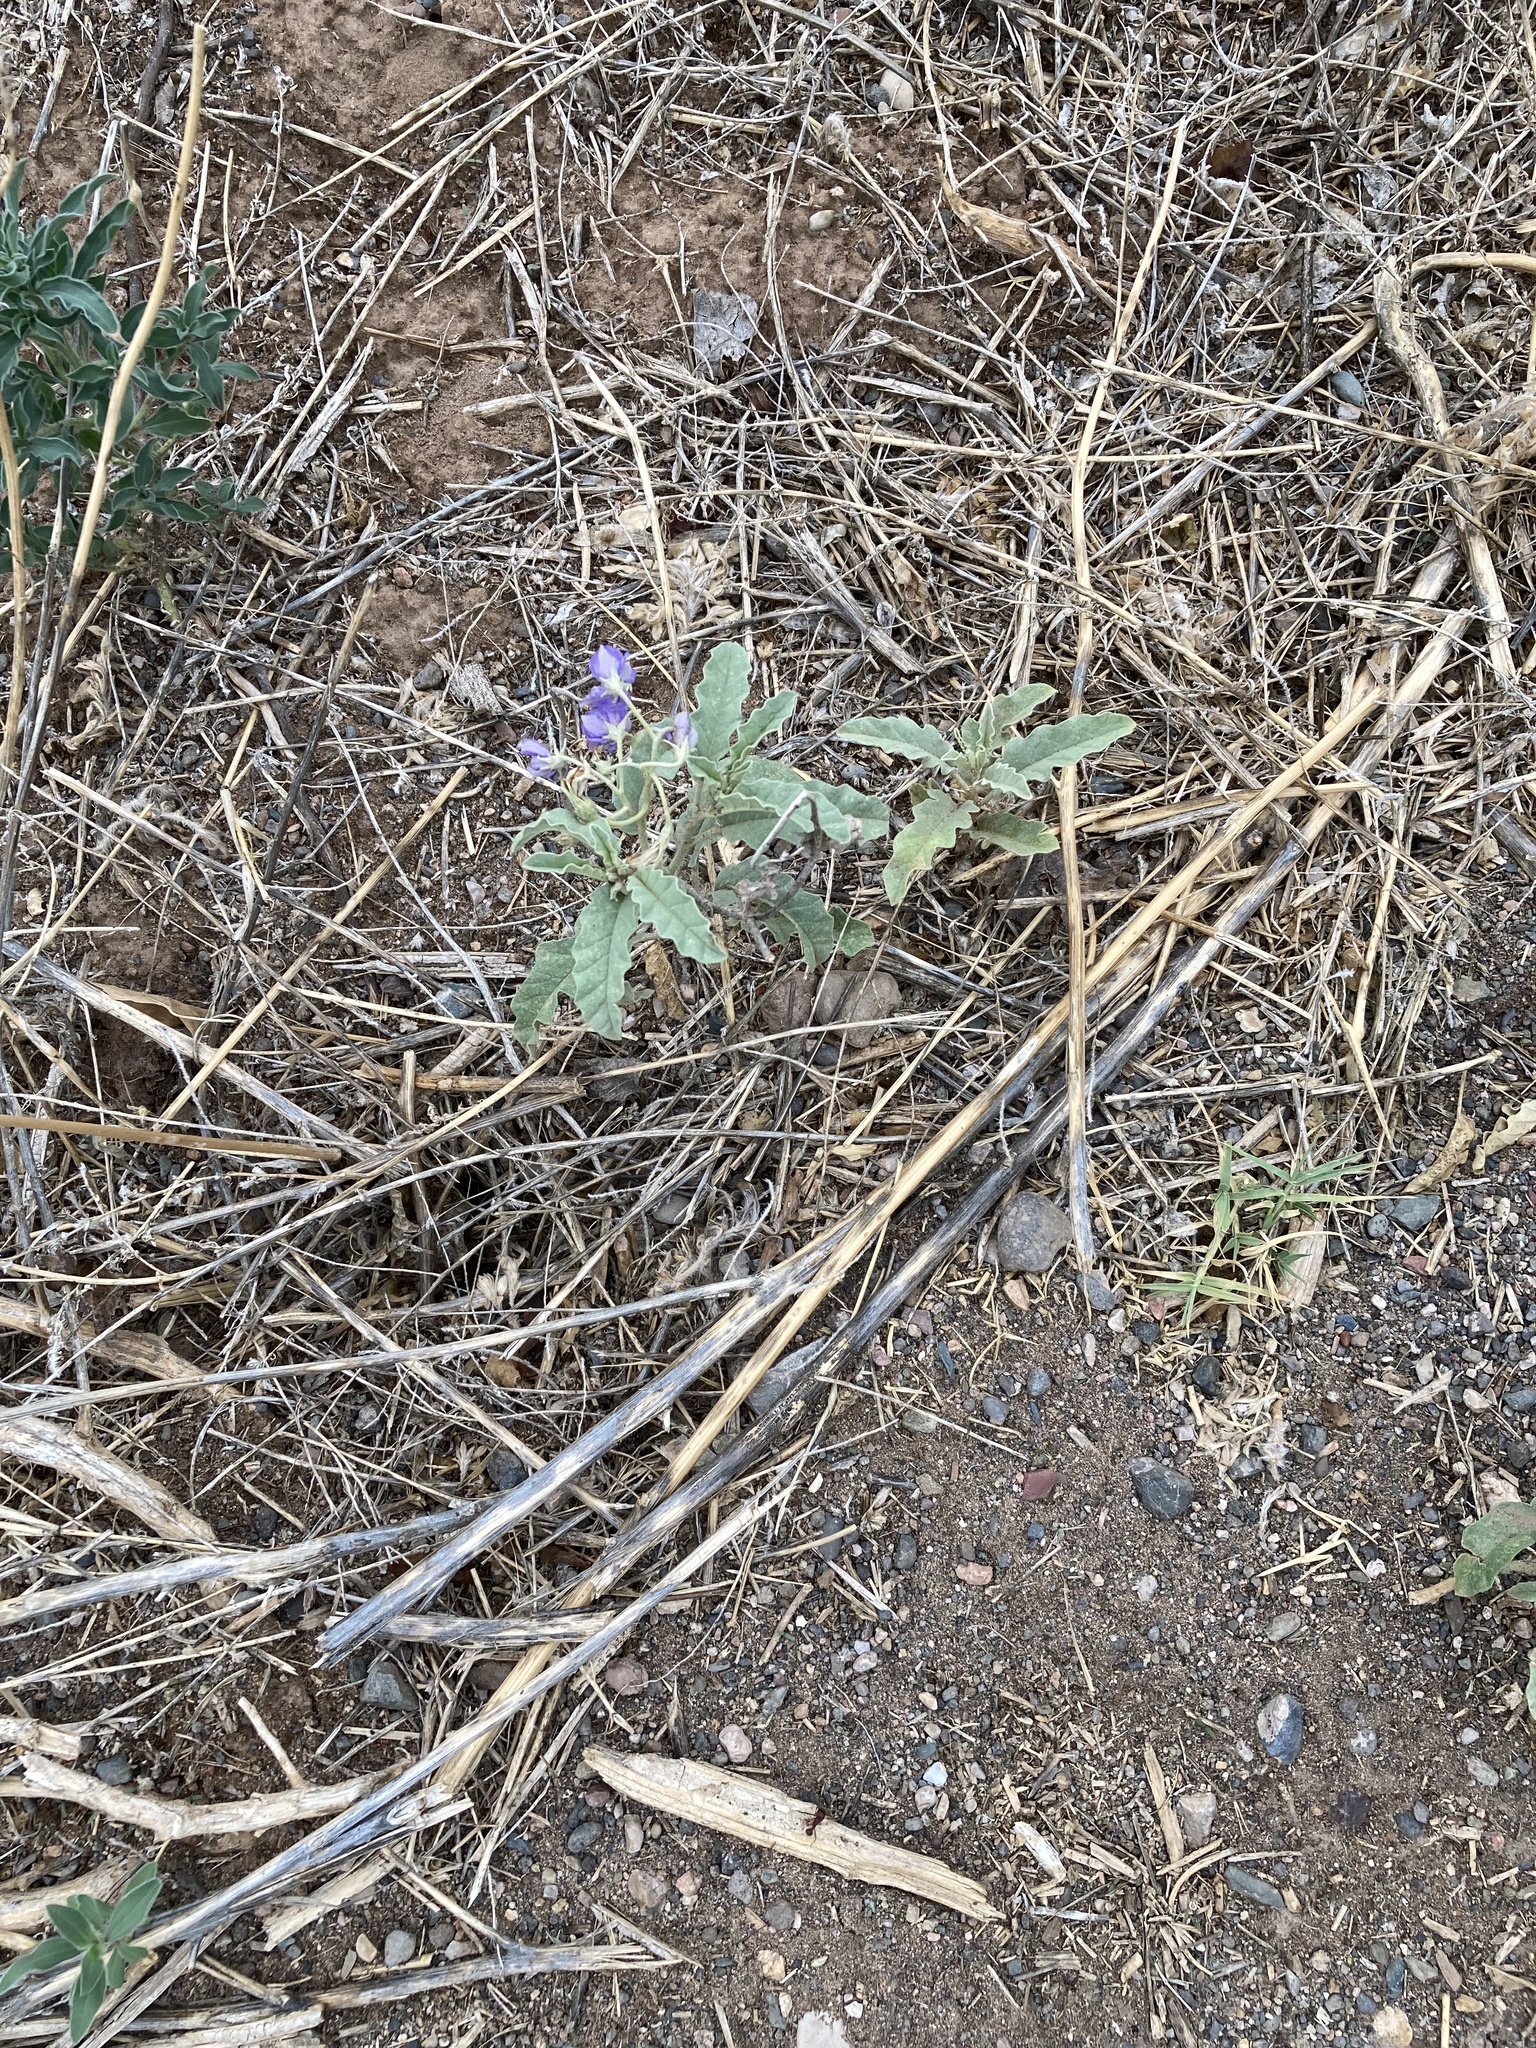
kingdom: Plantae
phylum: Tracheophyta
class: Magnoliopsida
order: Solanales
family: Solanaceae
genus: Solanum
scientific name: Solanum elaeagnifolium
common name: Silverleaf nightshade
